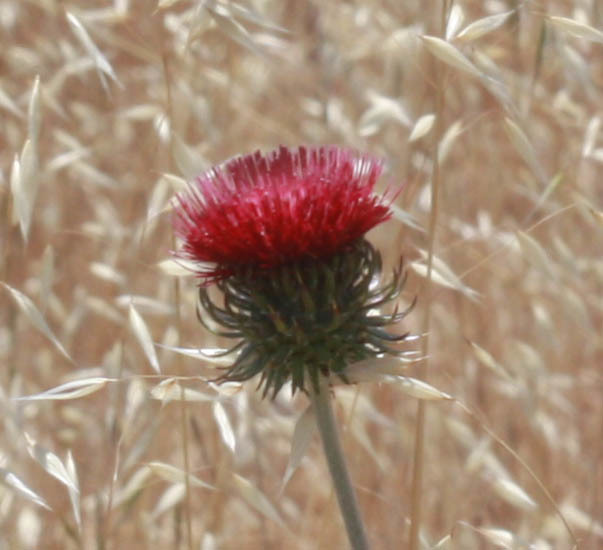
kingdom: Plantae
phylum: Tracheophyta
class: Magnoliopsida
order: Asterales
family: Asteraceae
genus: Cirsium
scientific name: Cirsium occidentale
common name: Western thistle
